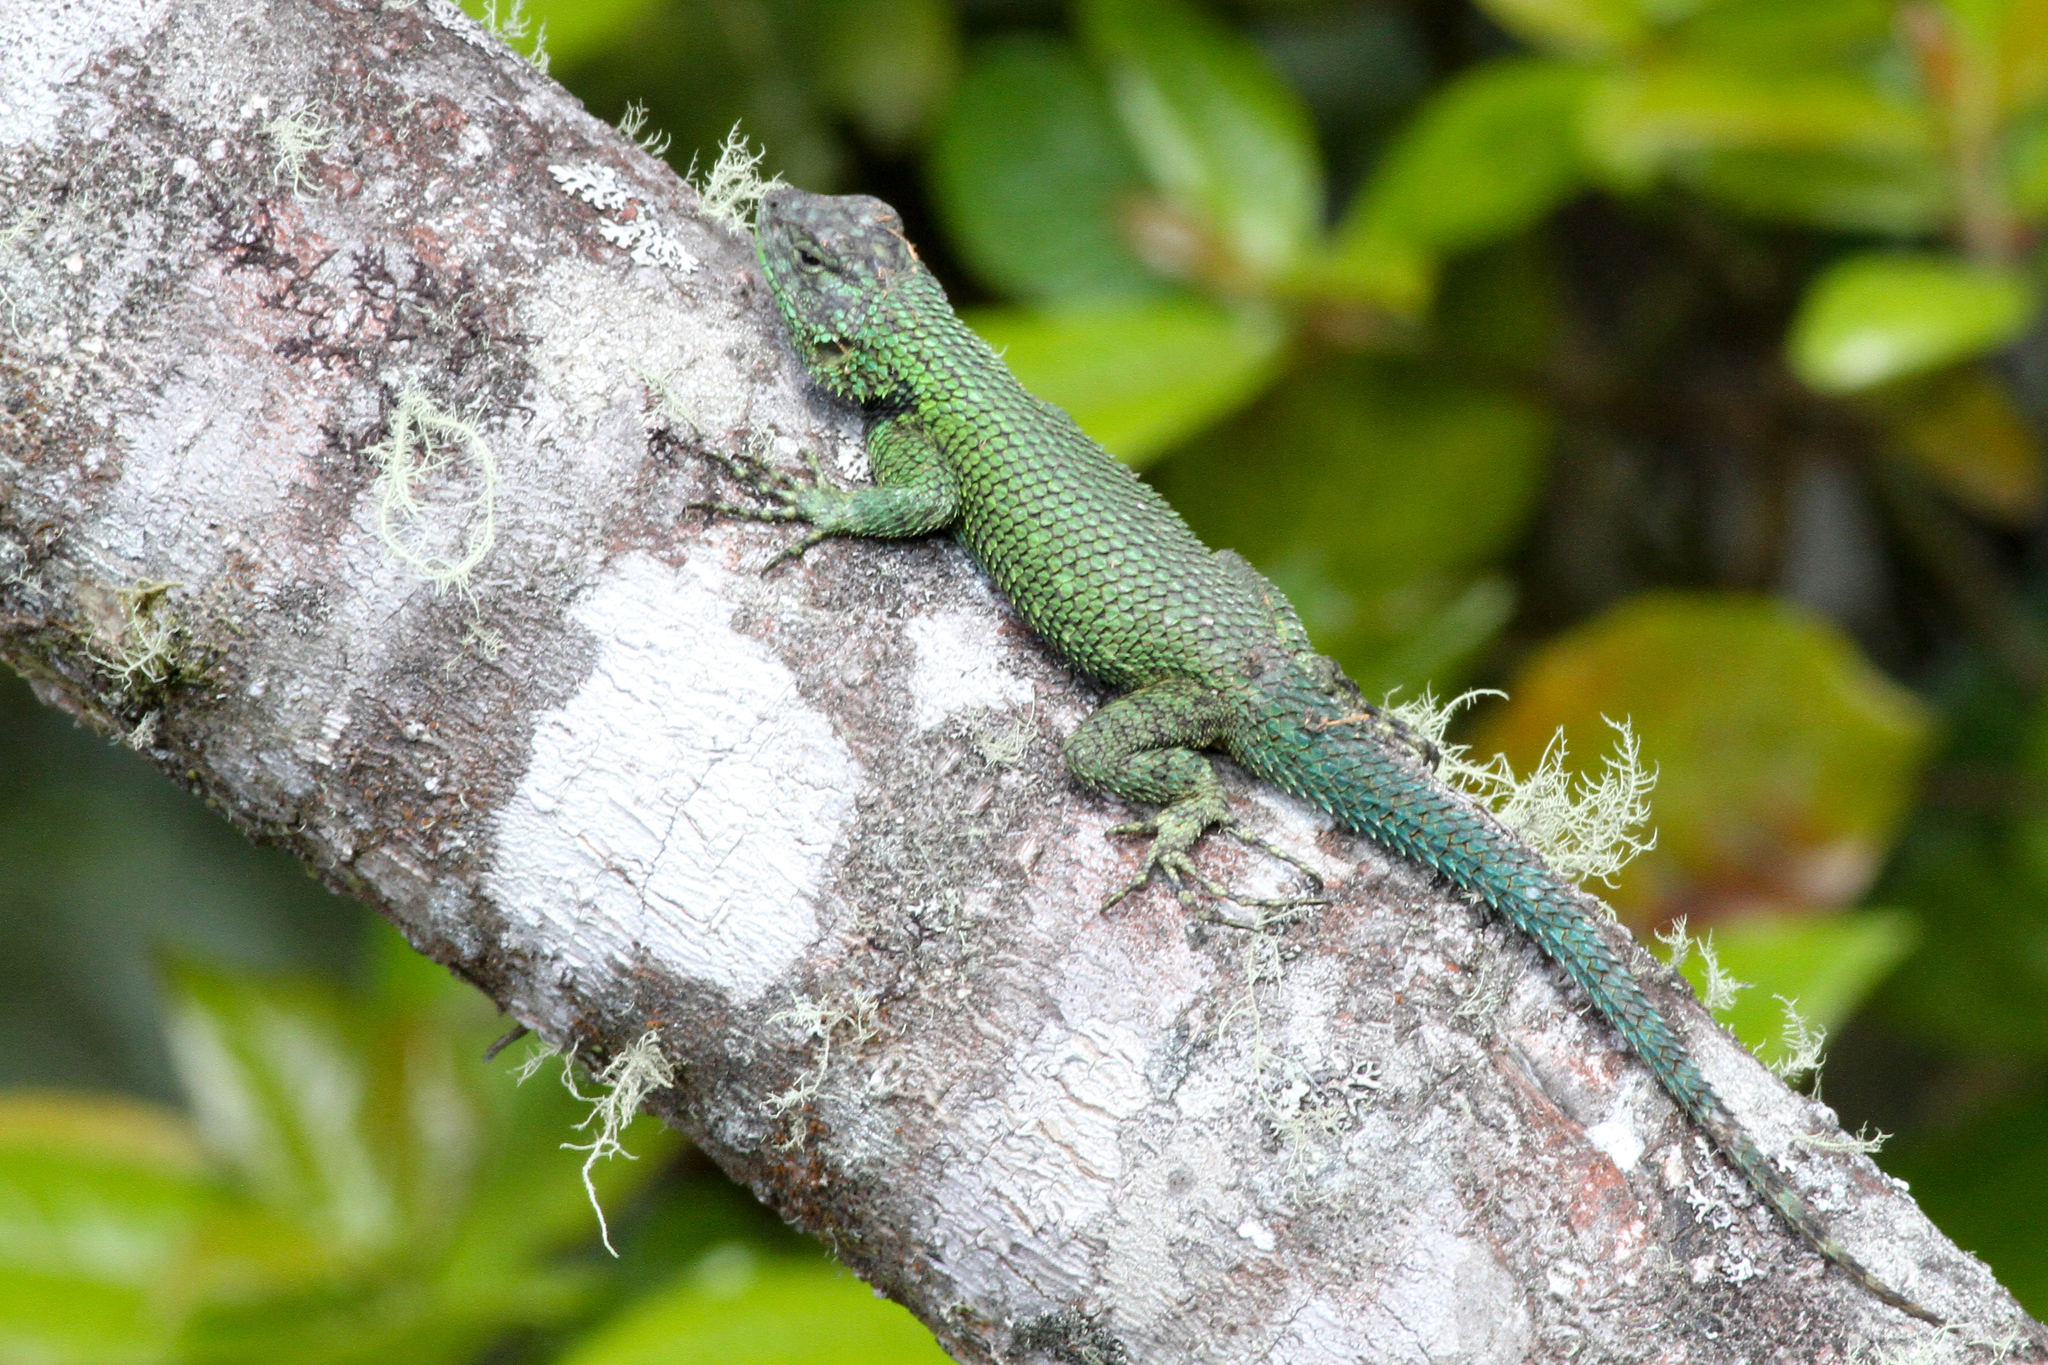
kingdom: Animalia
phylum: Chordata
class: Squamata
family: Phrynosomatidae
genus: Sceloporus
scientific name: Sceloporus hondurensis
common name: Honduran spiny lizard
